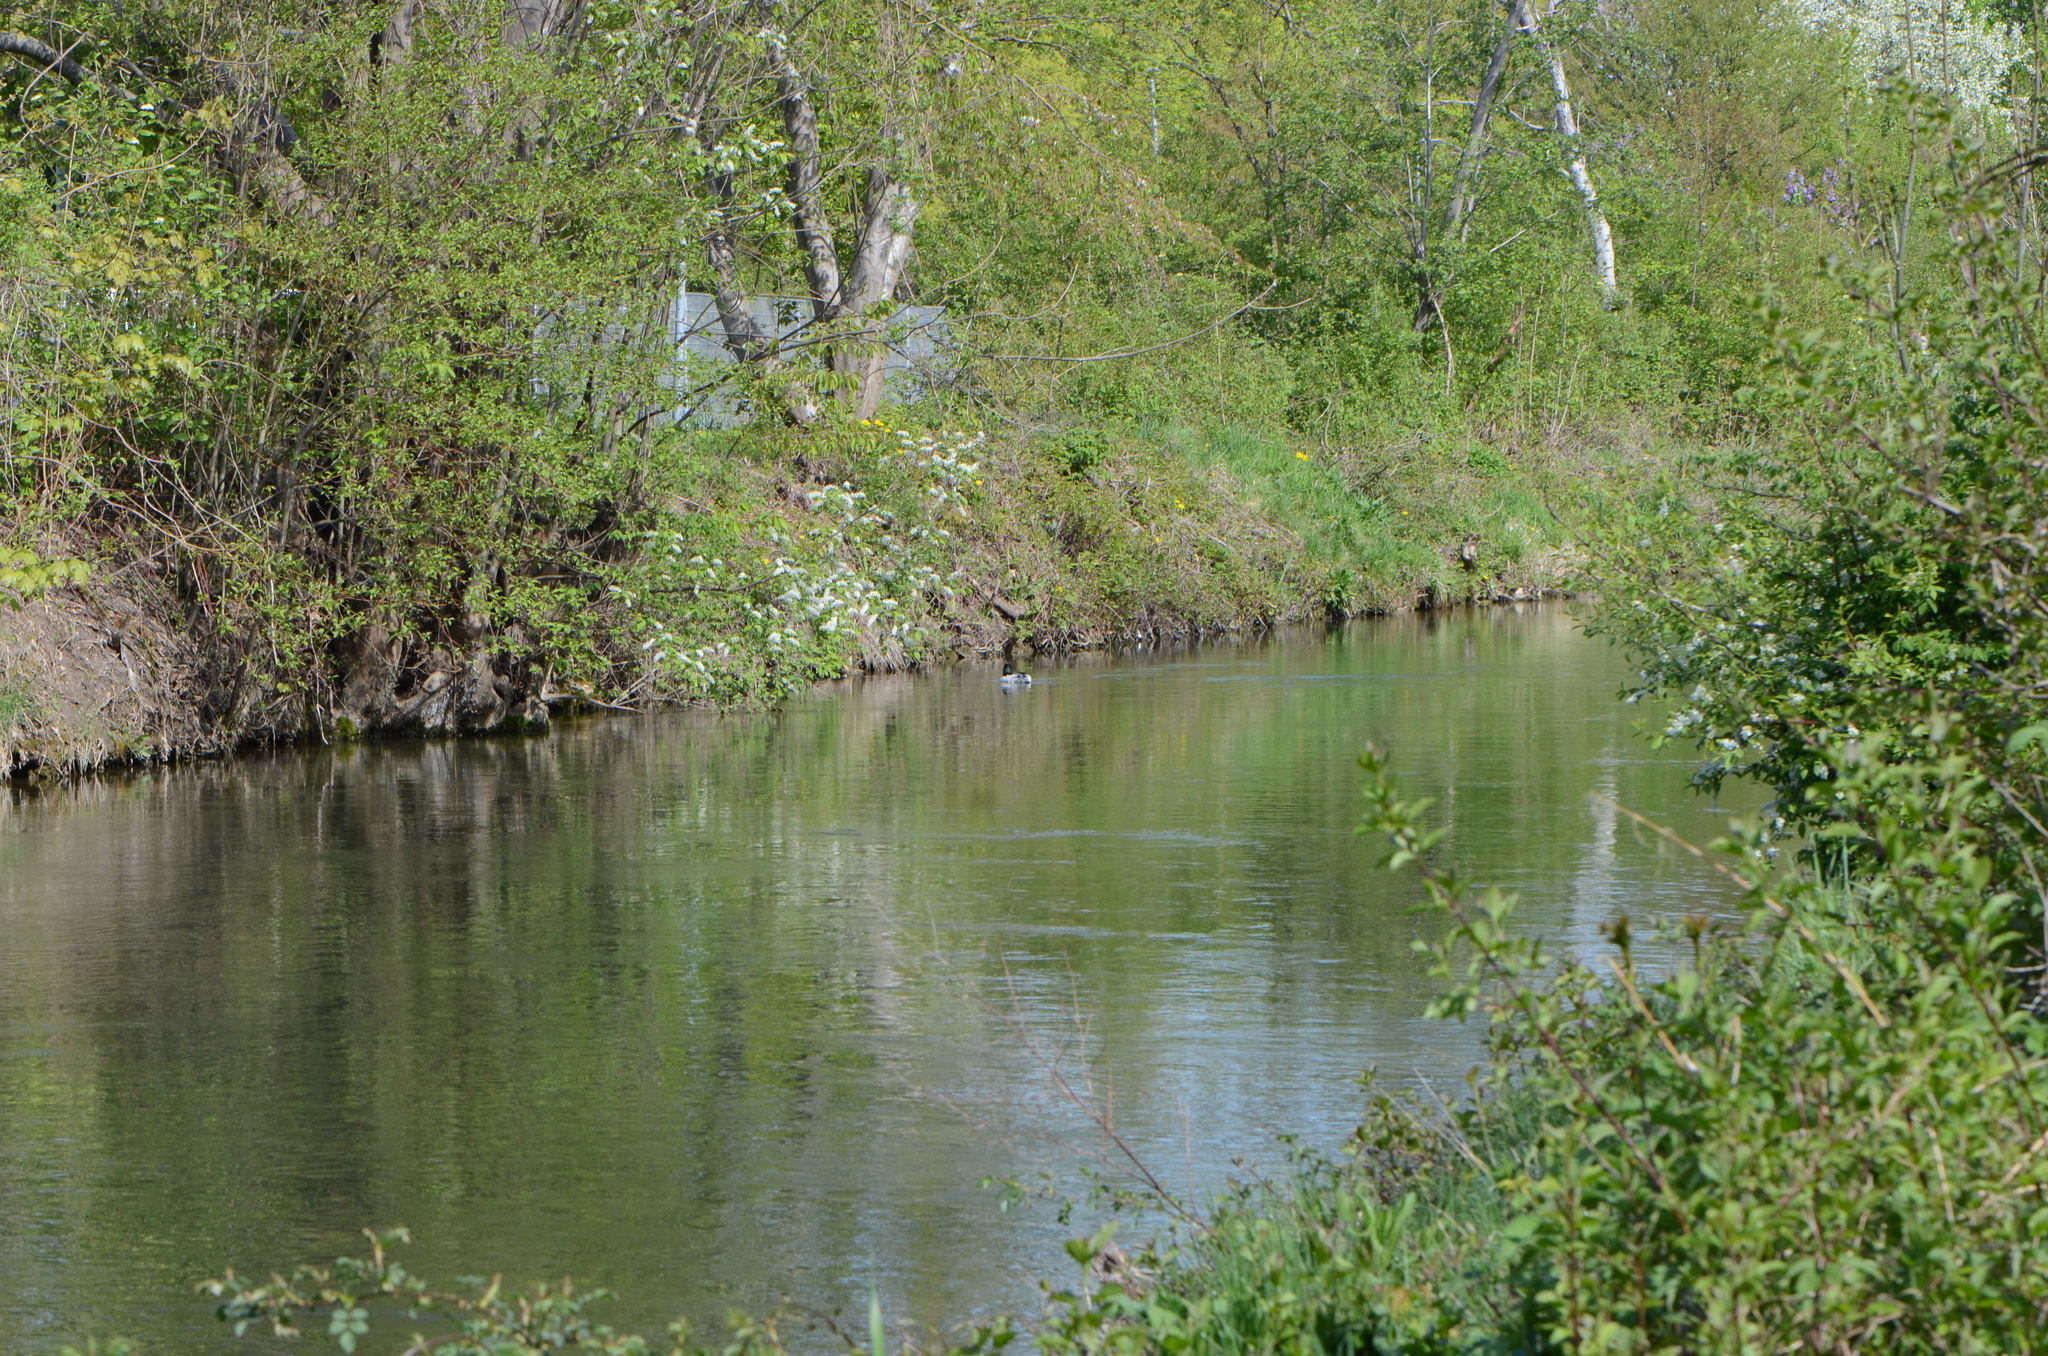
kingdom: Animalia
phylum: Chordata
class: Aves
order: Anseriformes
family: Anatidae
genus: Mergus
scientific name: Mergus merganser
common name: Common merganser
